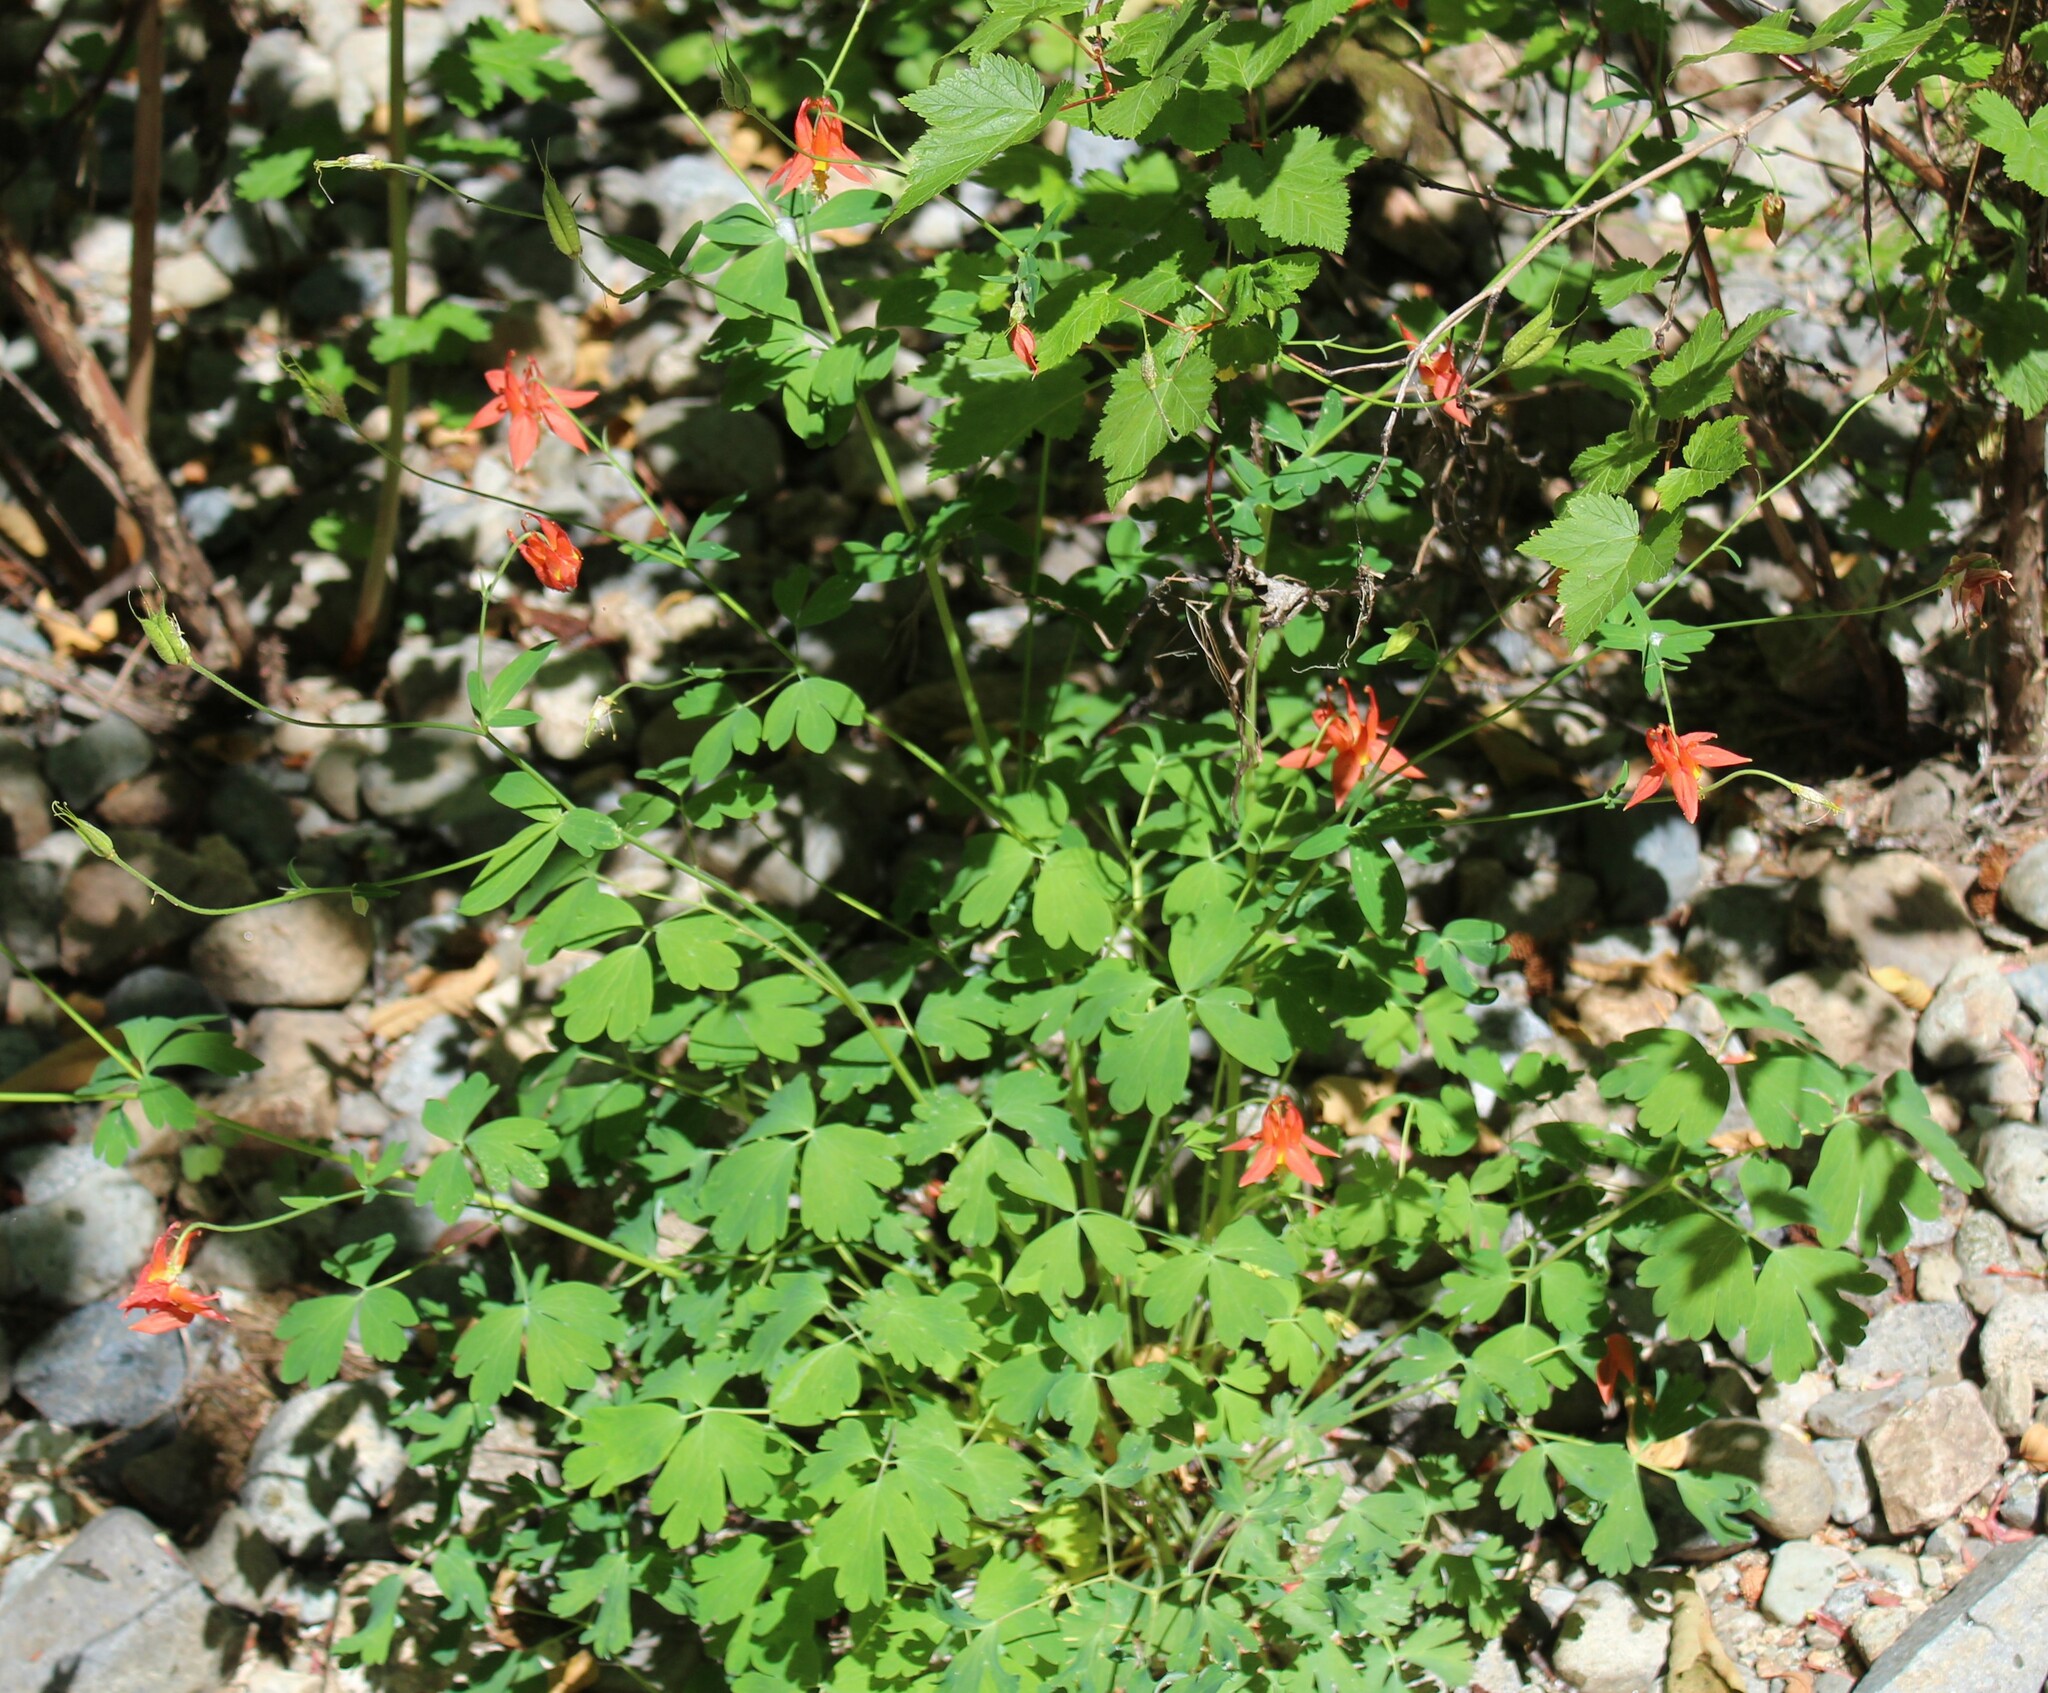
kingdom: Plantae
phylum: Tracheophyta
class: Magnoliopsida
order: Ranunculales
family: Ranunculaceae
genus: Aquilegia
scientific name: Aquilegia formosa
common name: Sitka columbine
